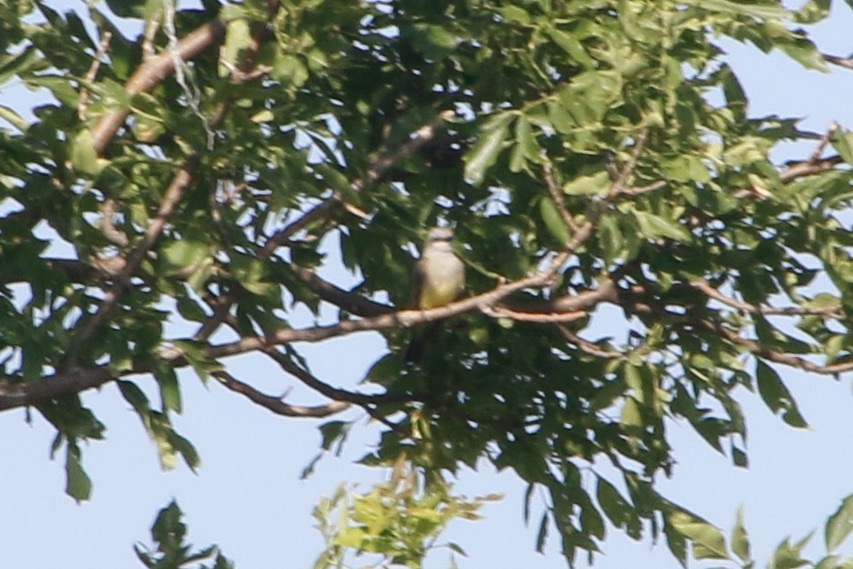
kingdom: Animalia
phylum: Chordata
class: Aves
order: Passeriformes
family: Tyrannidae
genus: Tyrannus
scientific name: Tyrannus verticalis
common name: Western kingbird
